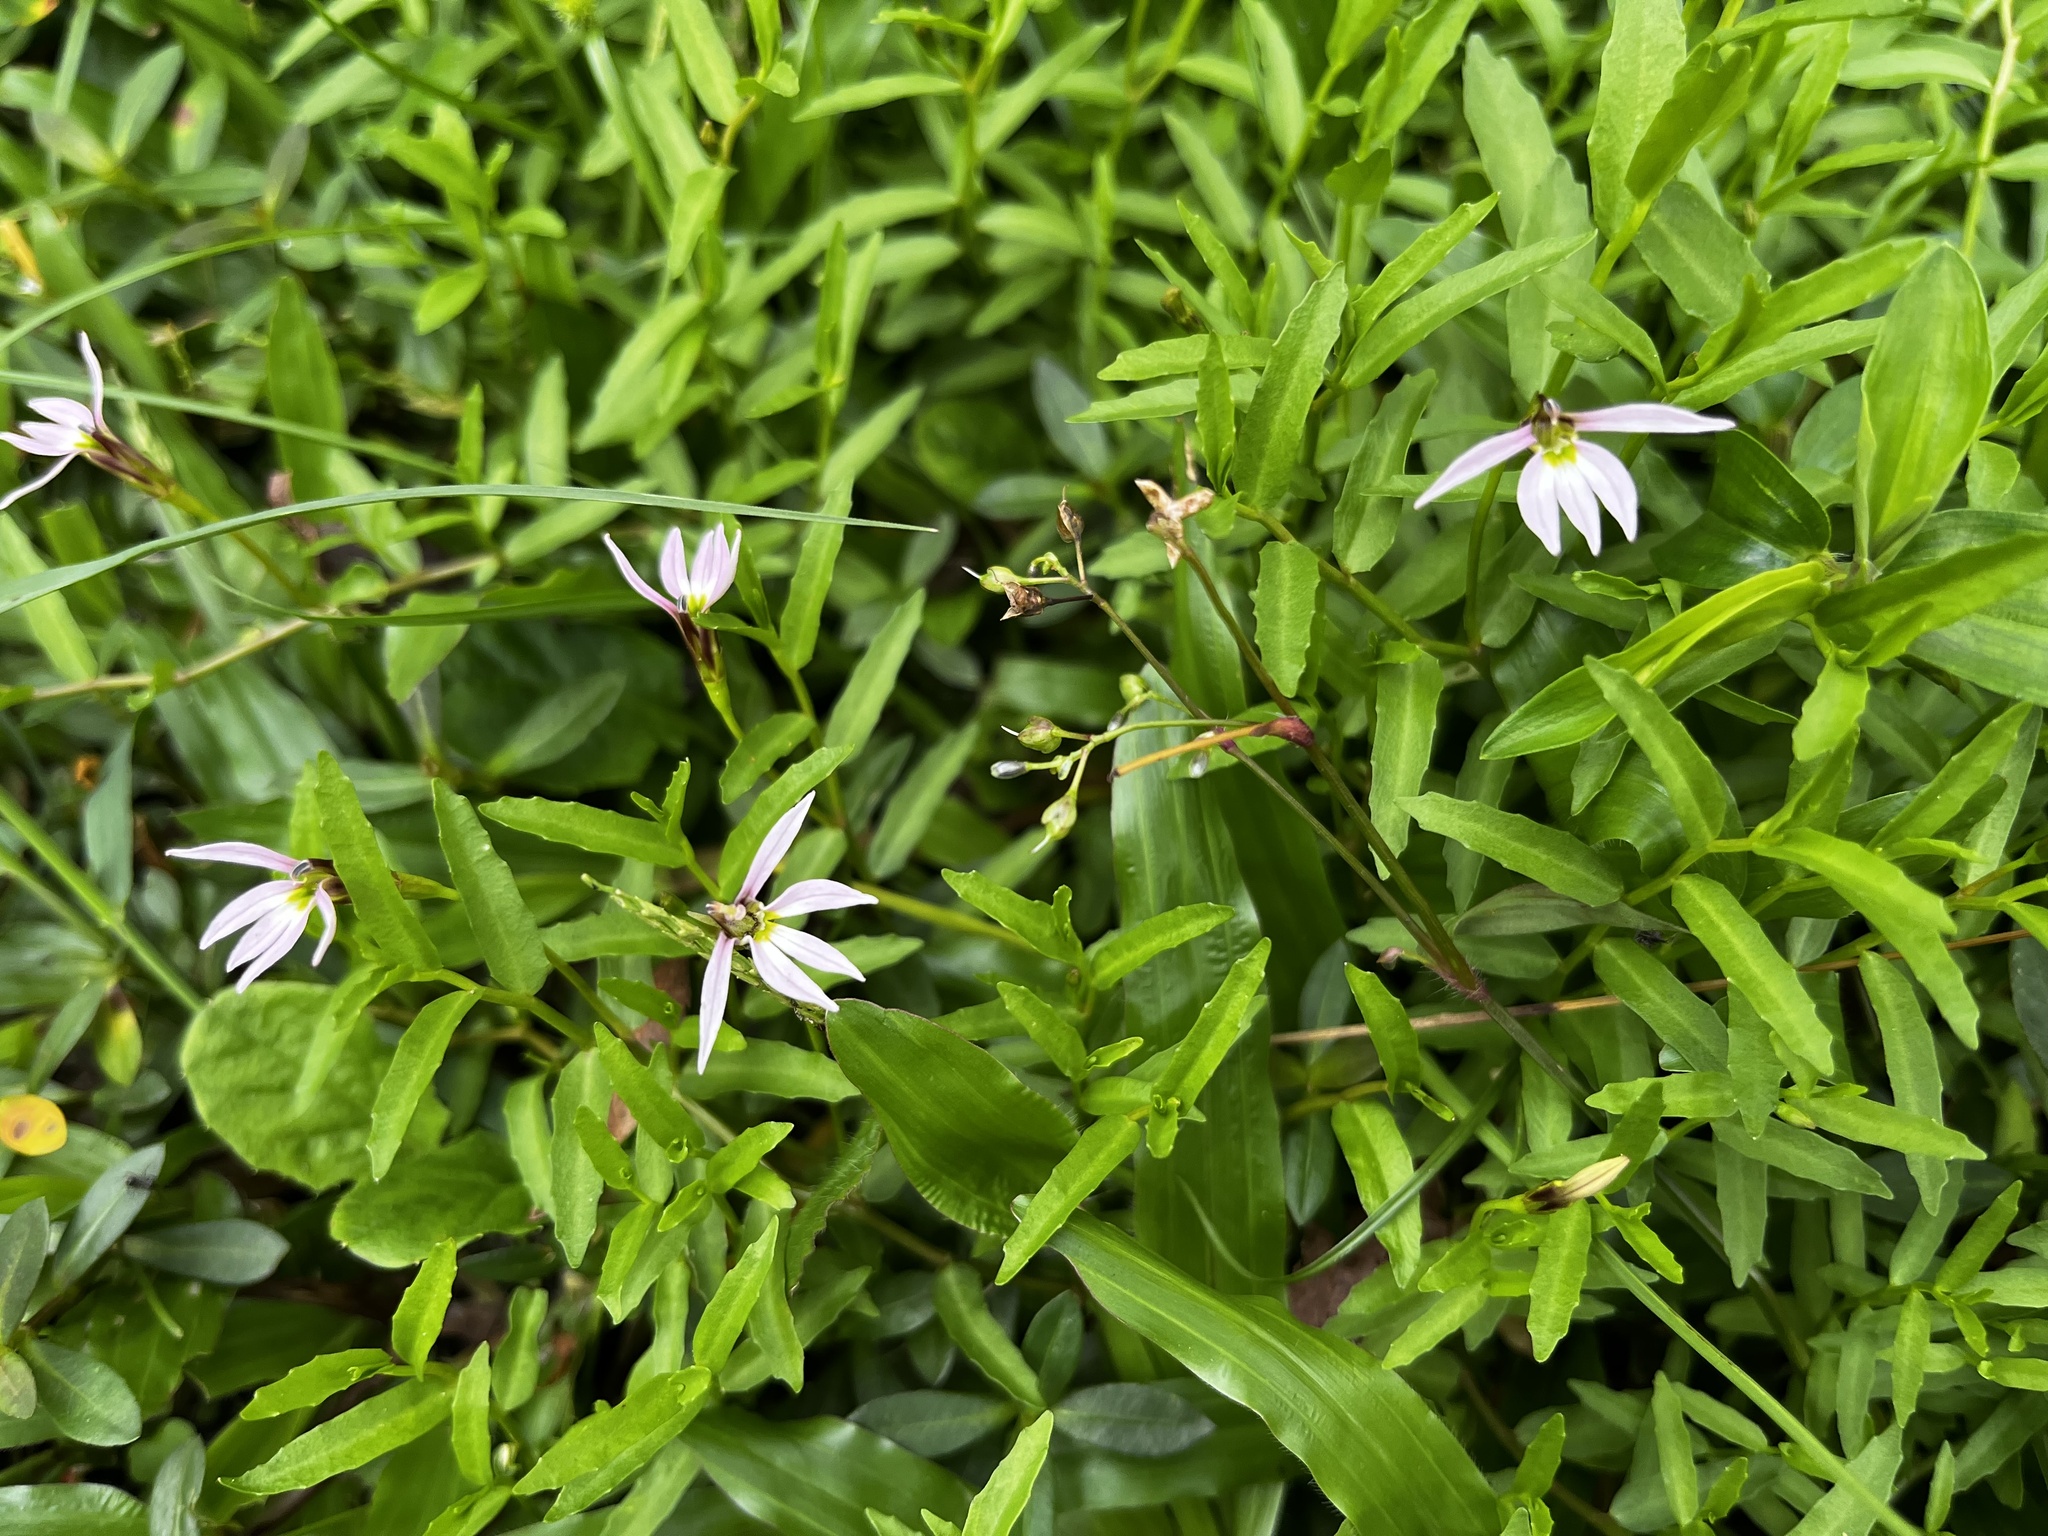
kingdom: Plantae
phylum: Tracheophyta
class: Magnoliopsida
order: Asterales
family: Campanulaceae
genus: Lobelia
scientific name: Lobelia chinensis
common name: Chinese lobelia
